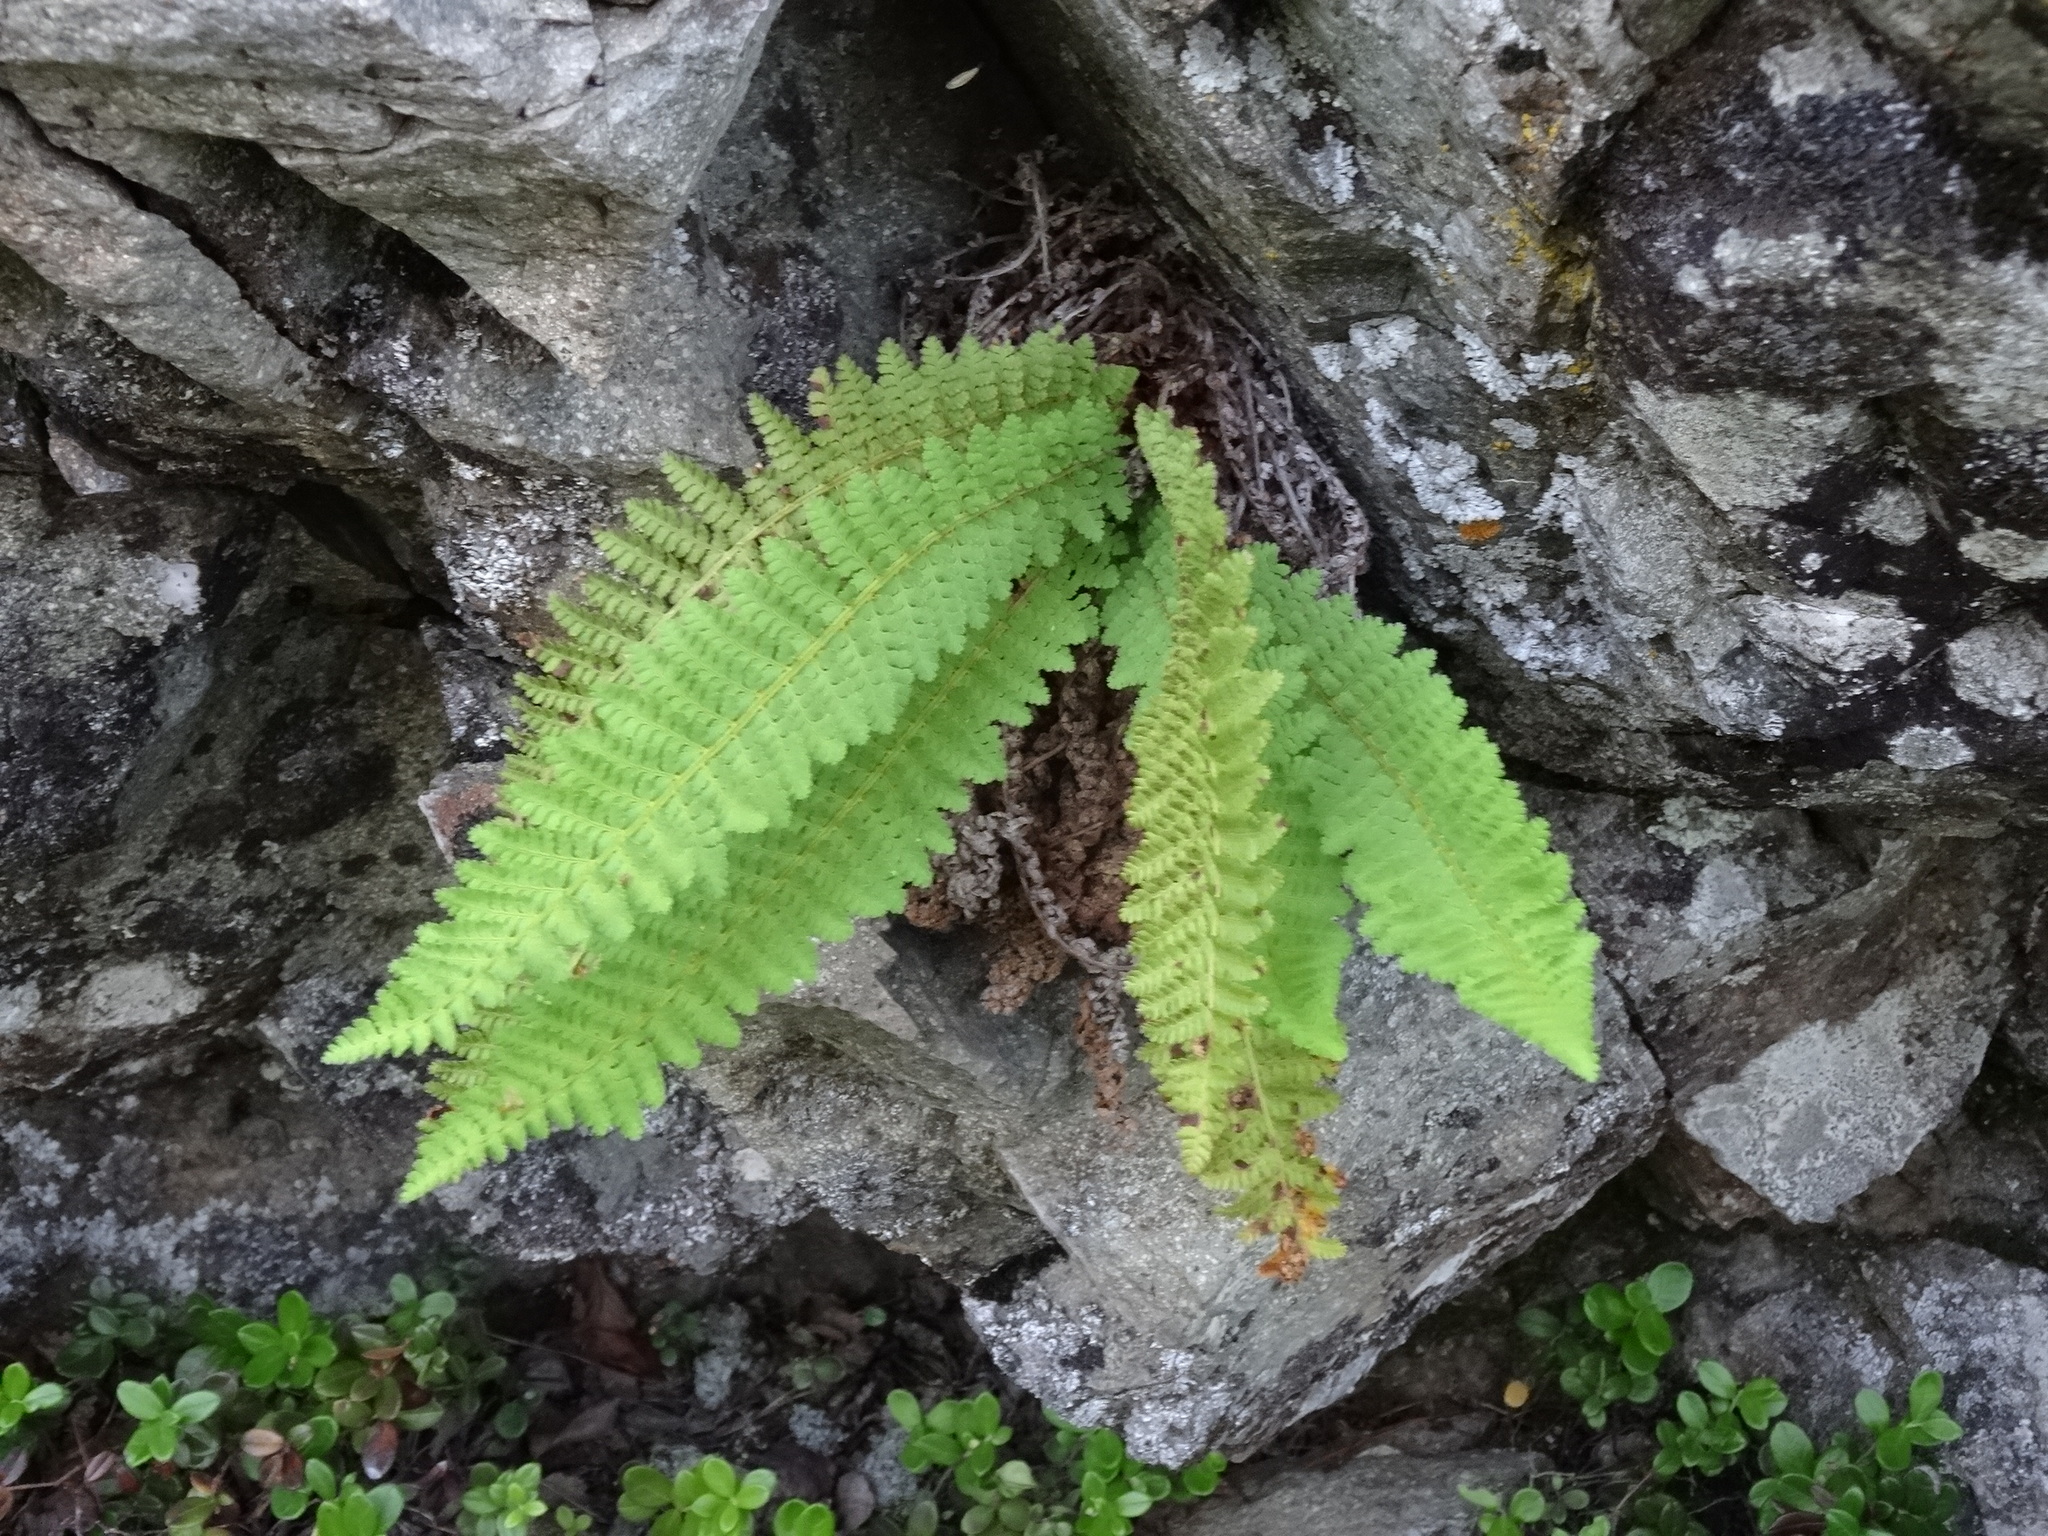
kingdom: Plantae
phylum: Tracheophyta
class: Polypodiopsida
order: Polypodiales
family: Dryopteridaceae
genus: Dryopteris
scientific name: Dryopteris fragrans
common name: Fragrant wood fern
